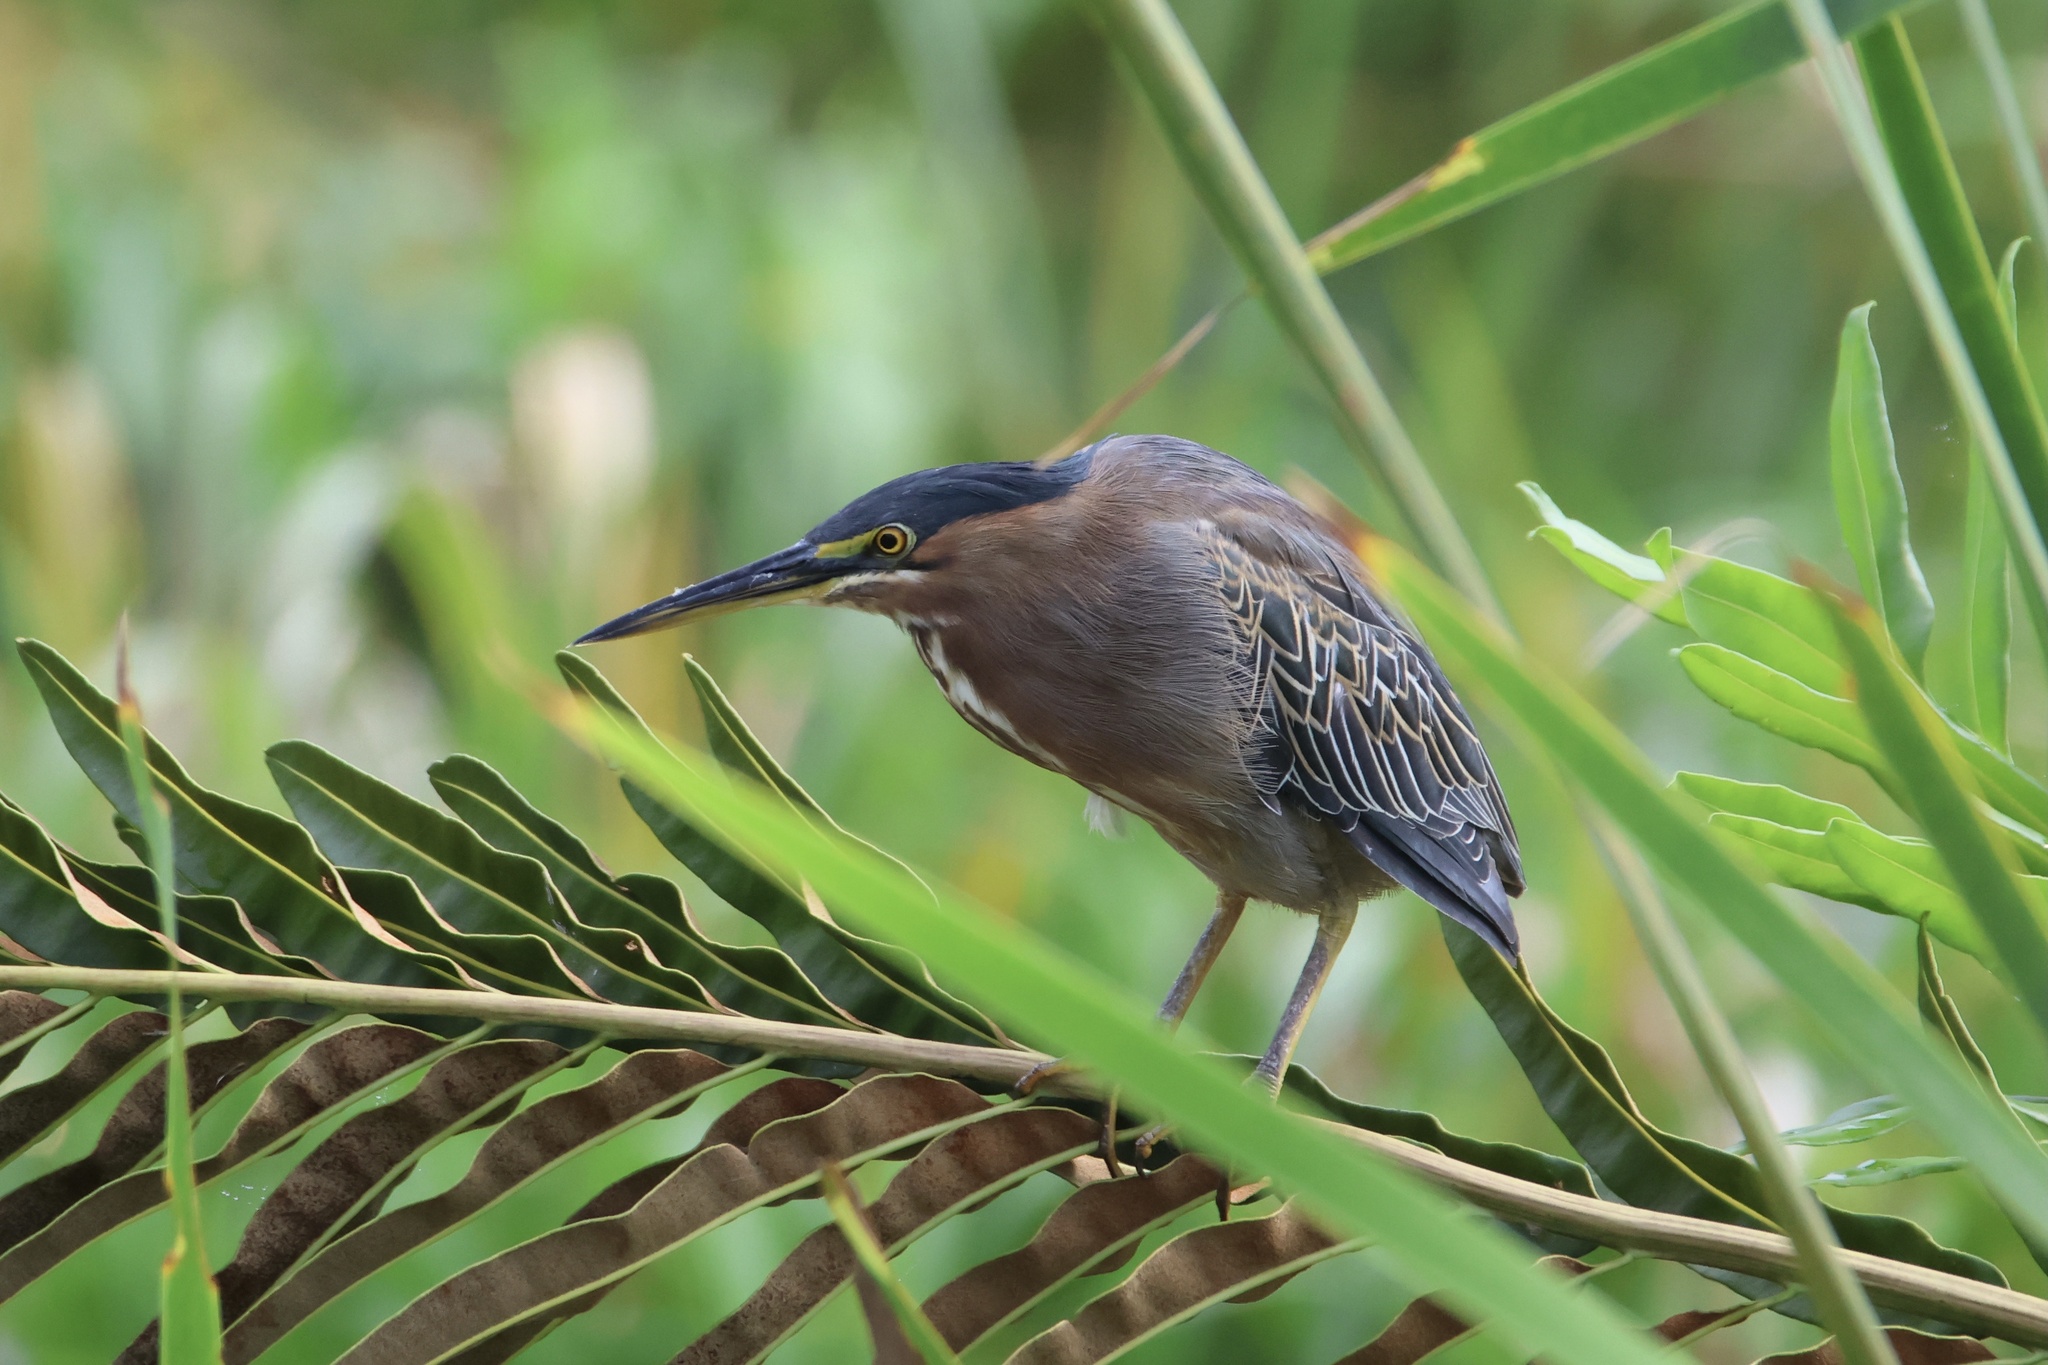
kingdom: Animalia
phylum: Chordata
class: Aves
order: Pelecaniformes
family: Ardeidae
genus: Butorides
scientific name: Butorides virescens
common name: Green heron
